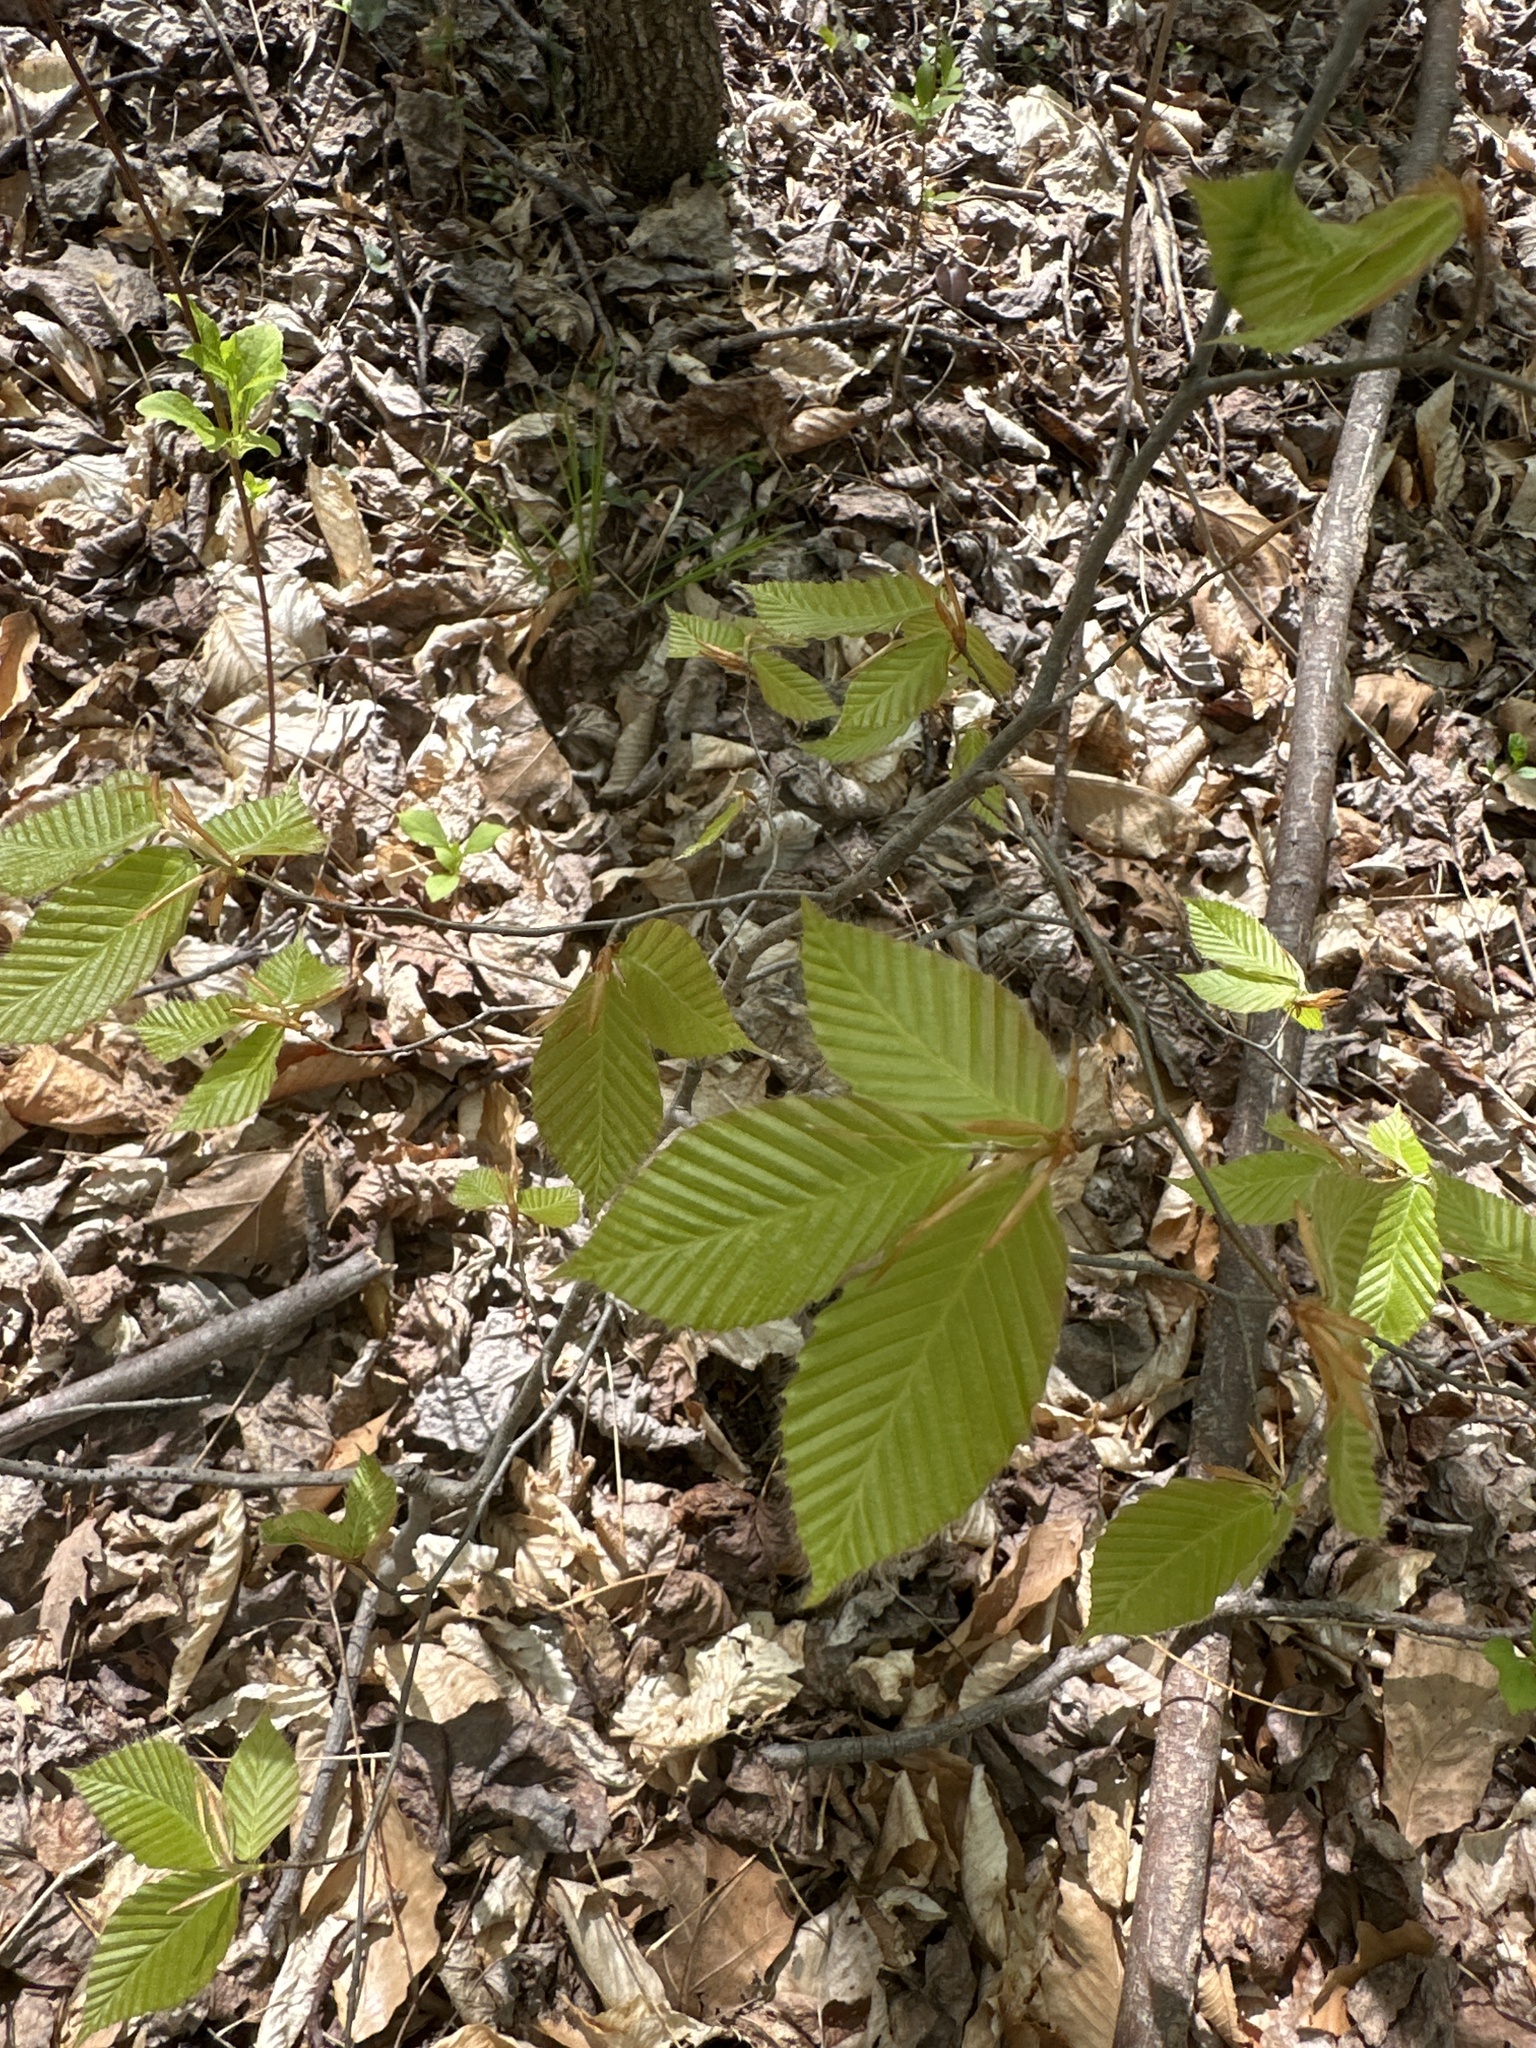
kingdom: Plantae
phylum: Tracheophyta
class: Magnoliopsida
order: Fagales
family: Fagaceae
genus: Fagus
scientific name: Fagus grandifolia
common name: American beech
